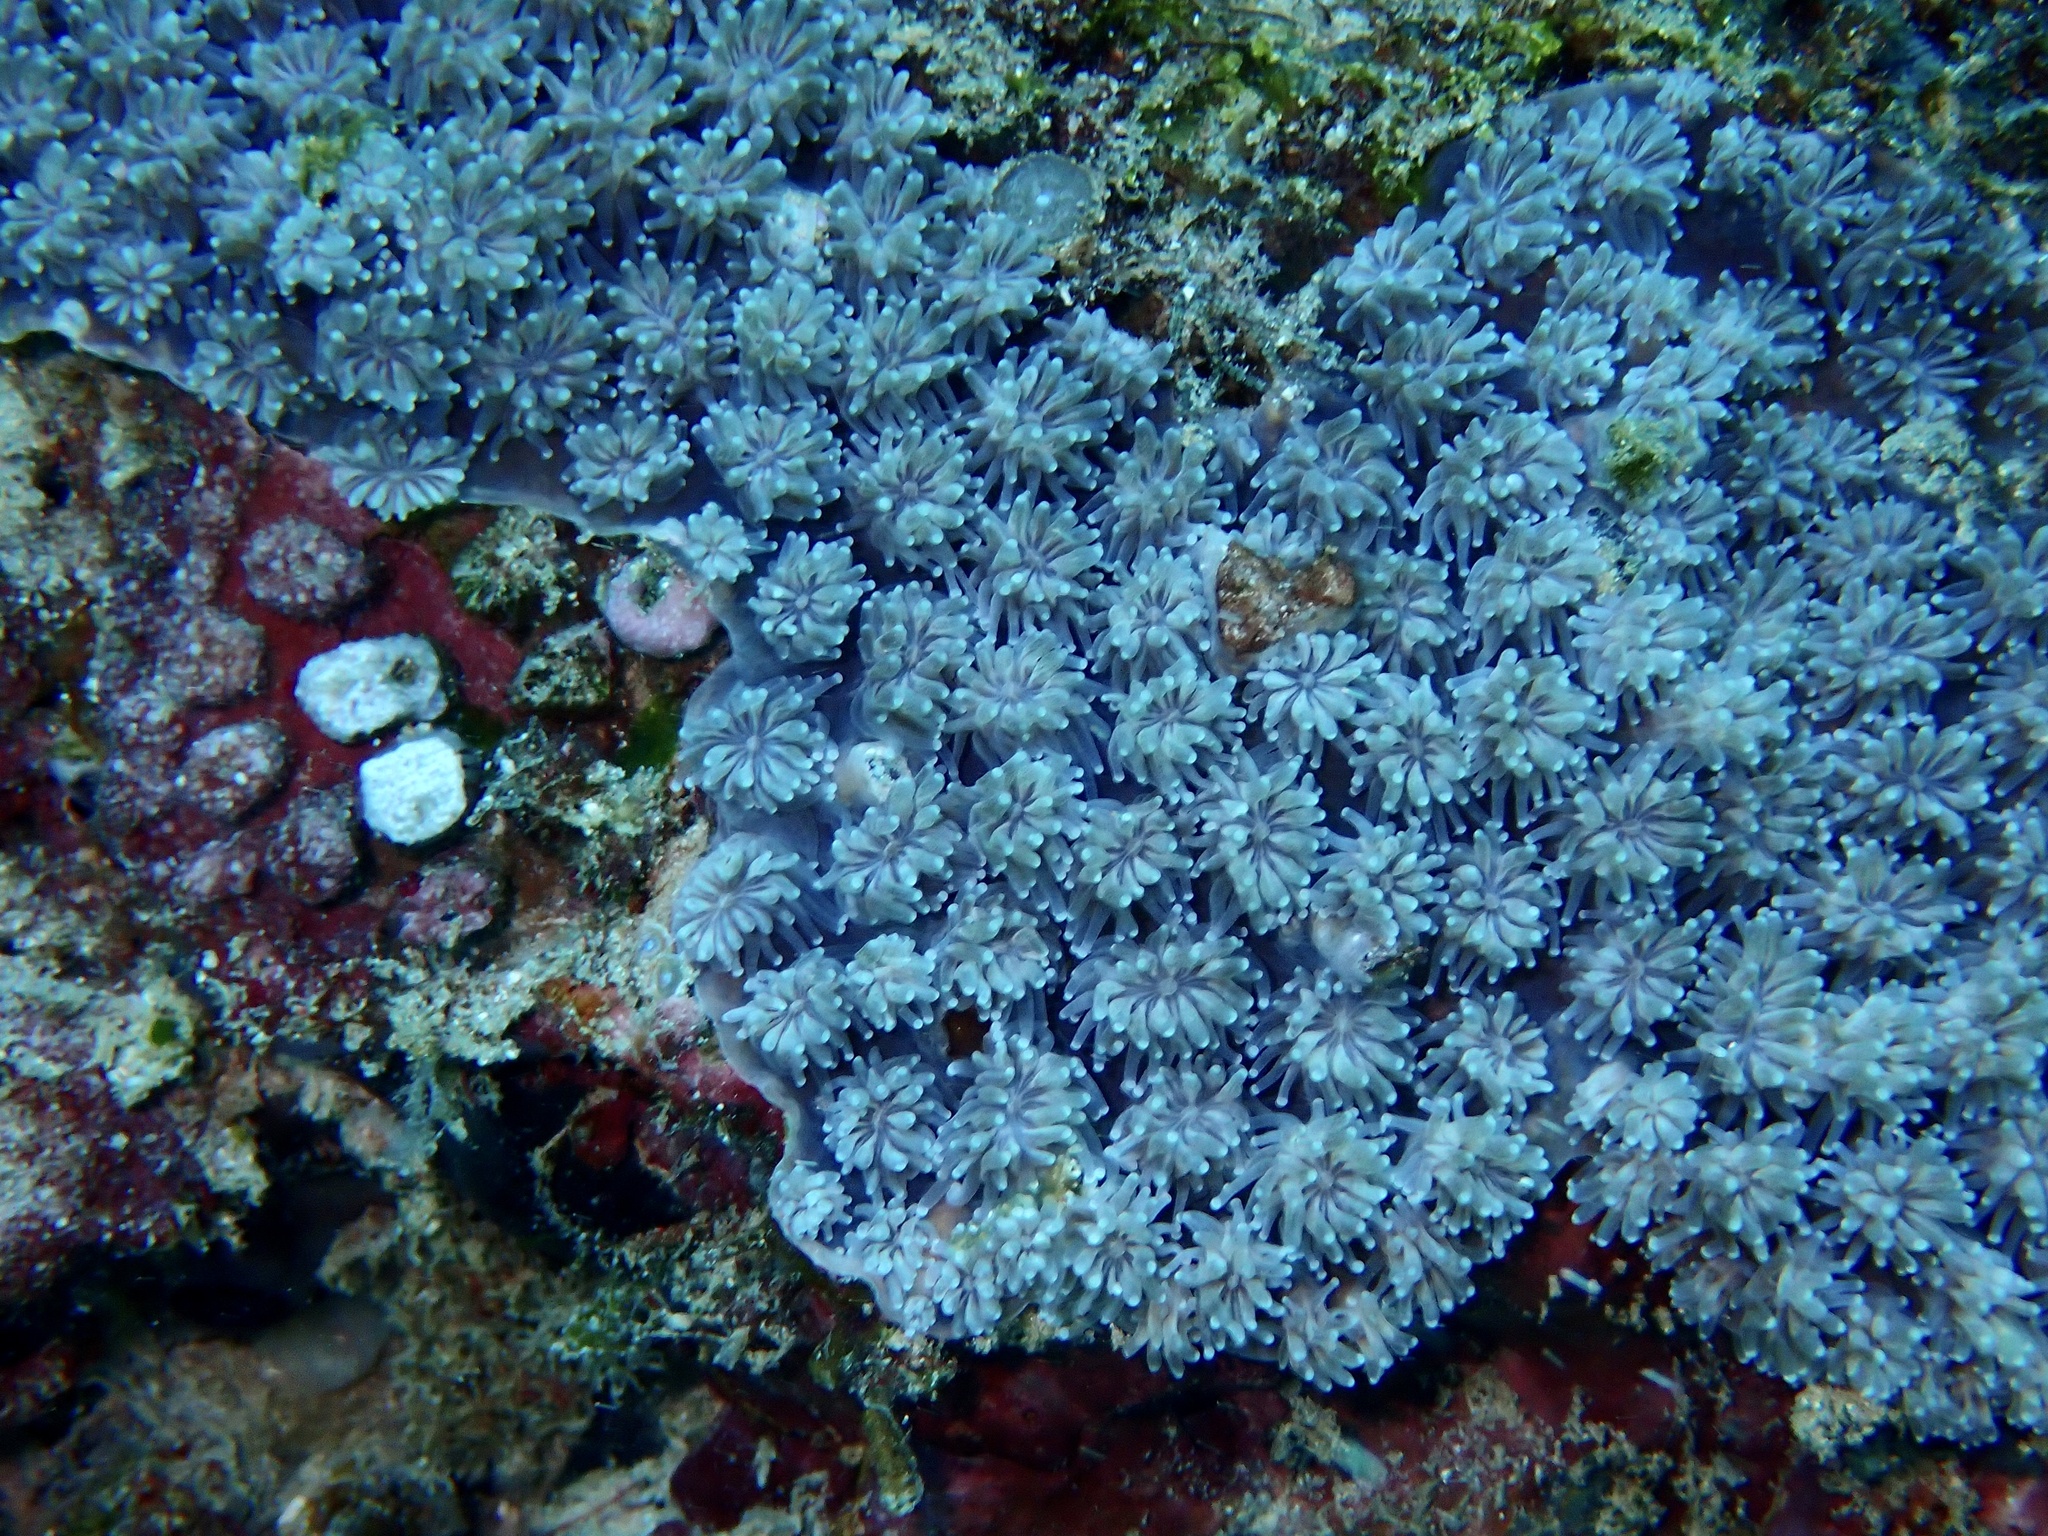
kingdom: Animalia
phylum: Cnidaria
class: Anthozoa
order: Scleractinia
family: Euphylliidae
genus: Galaxea
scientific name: Galaxea fascicularis
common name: Octopus coral
